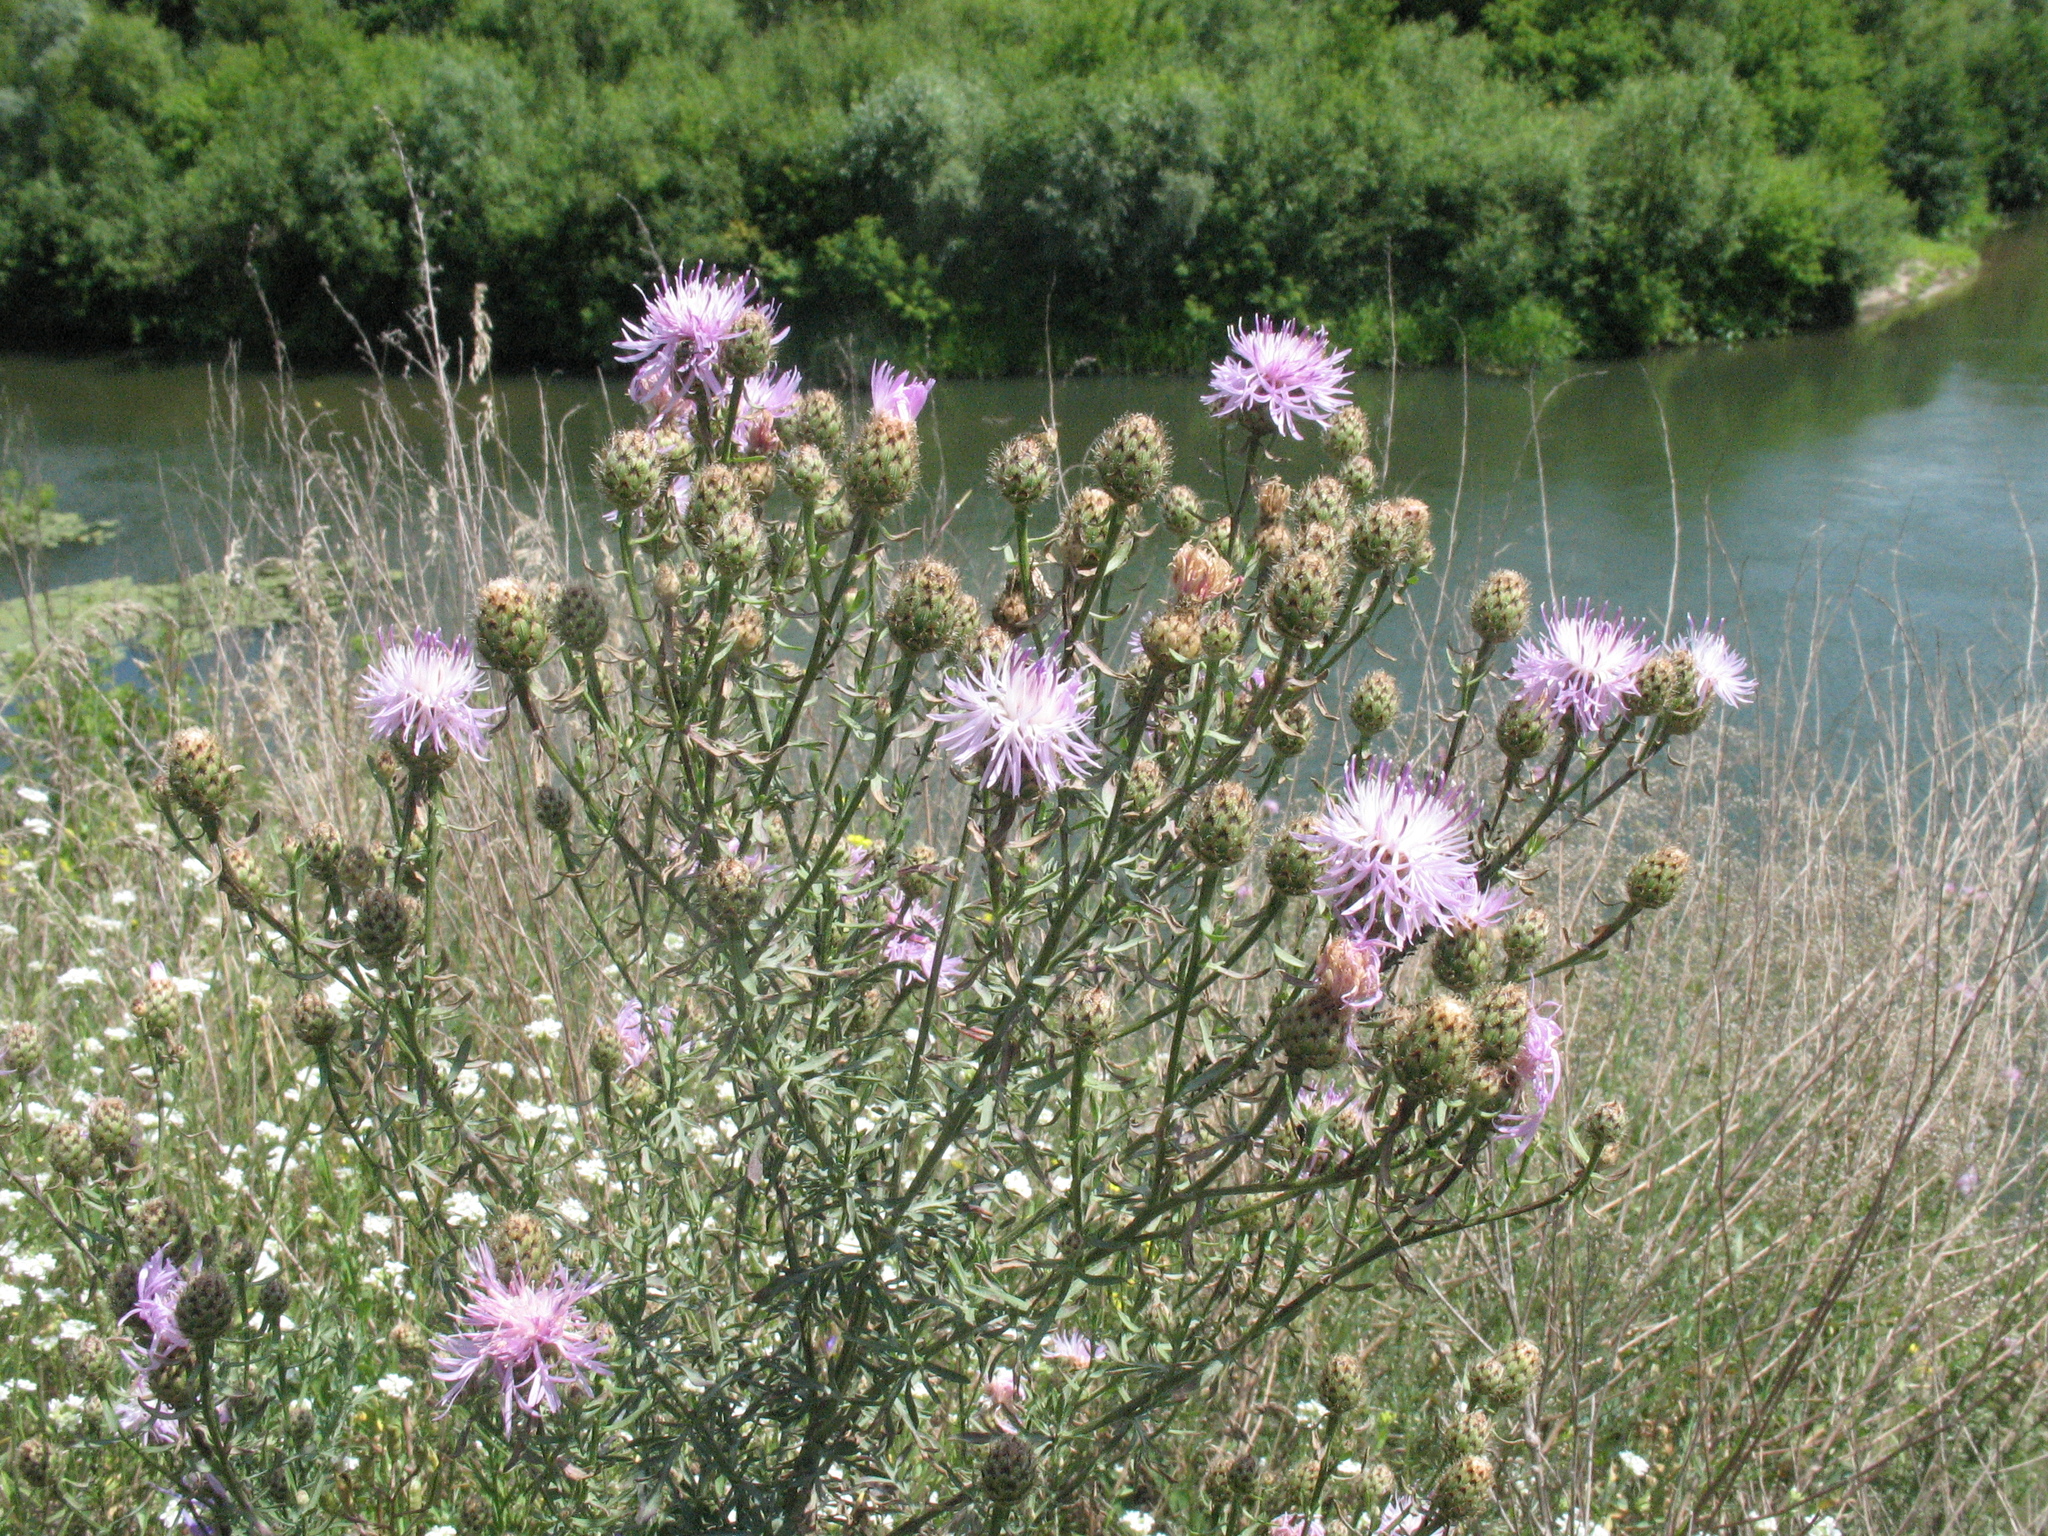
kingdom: Plantae
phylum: Tracheophyta
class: Magnoliopsida
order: Asterales
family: Asteraceae
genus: Centaurea
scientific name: Centaurea stoebe
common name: Spotted knapweed
